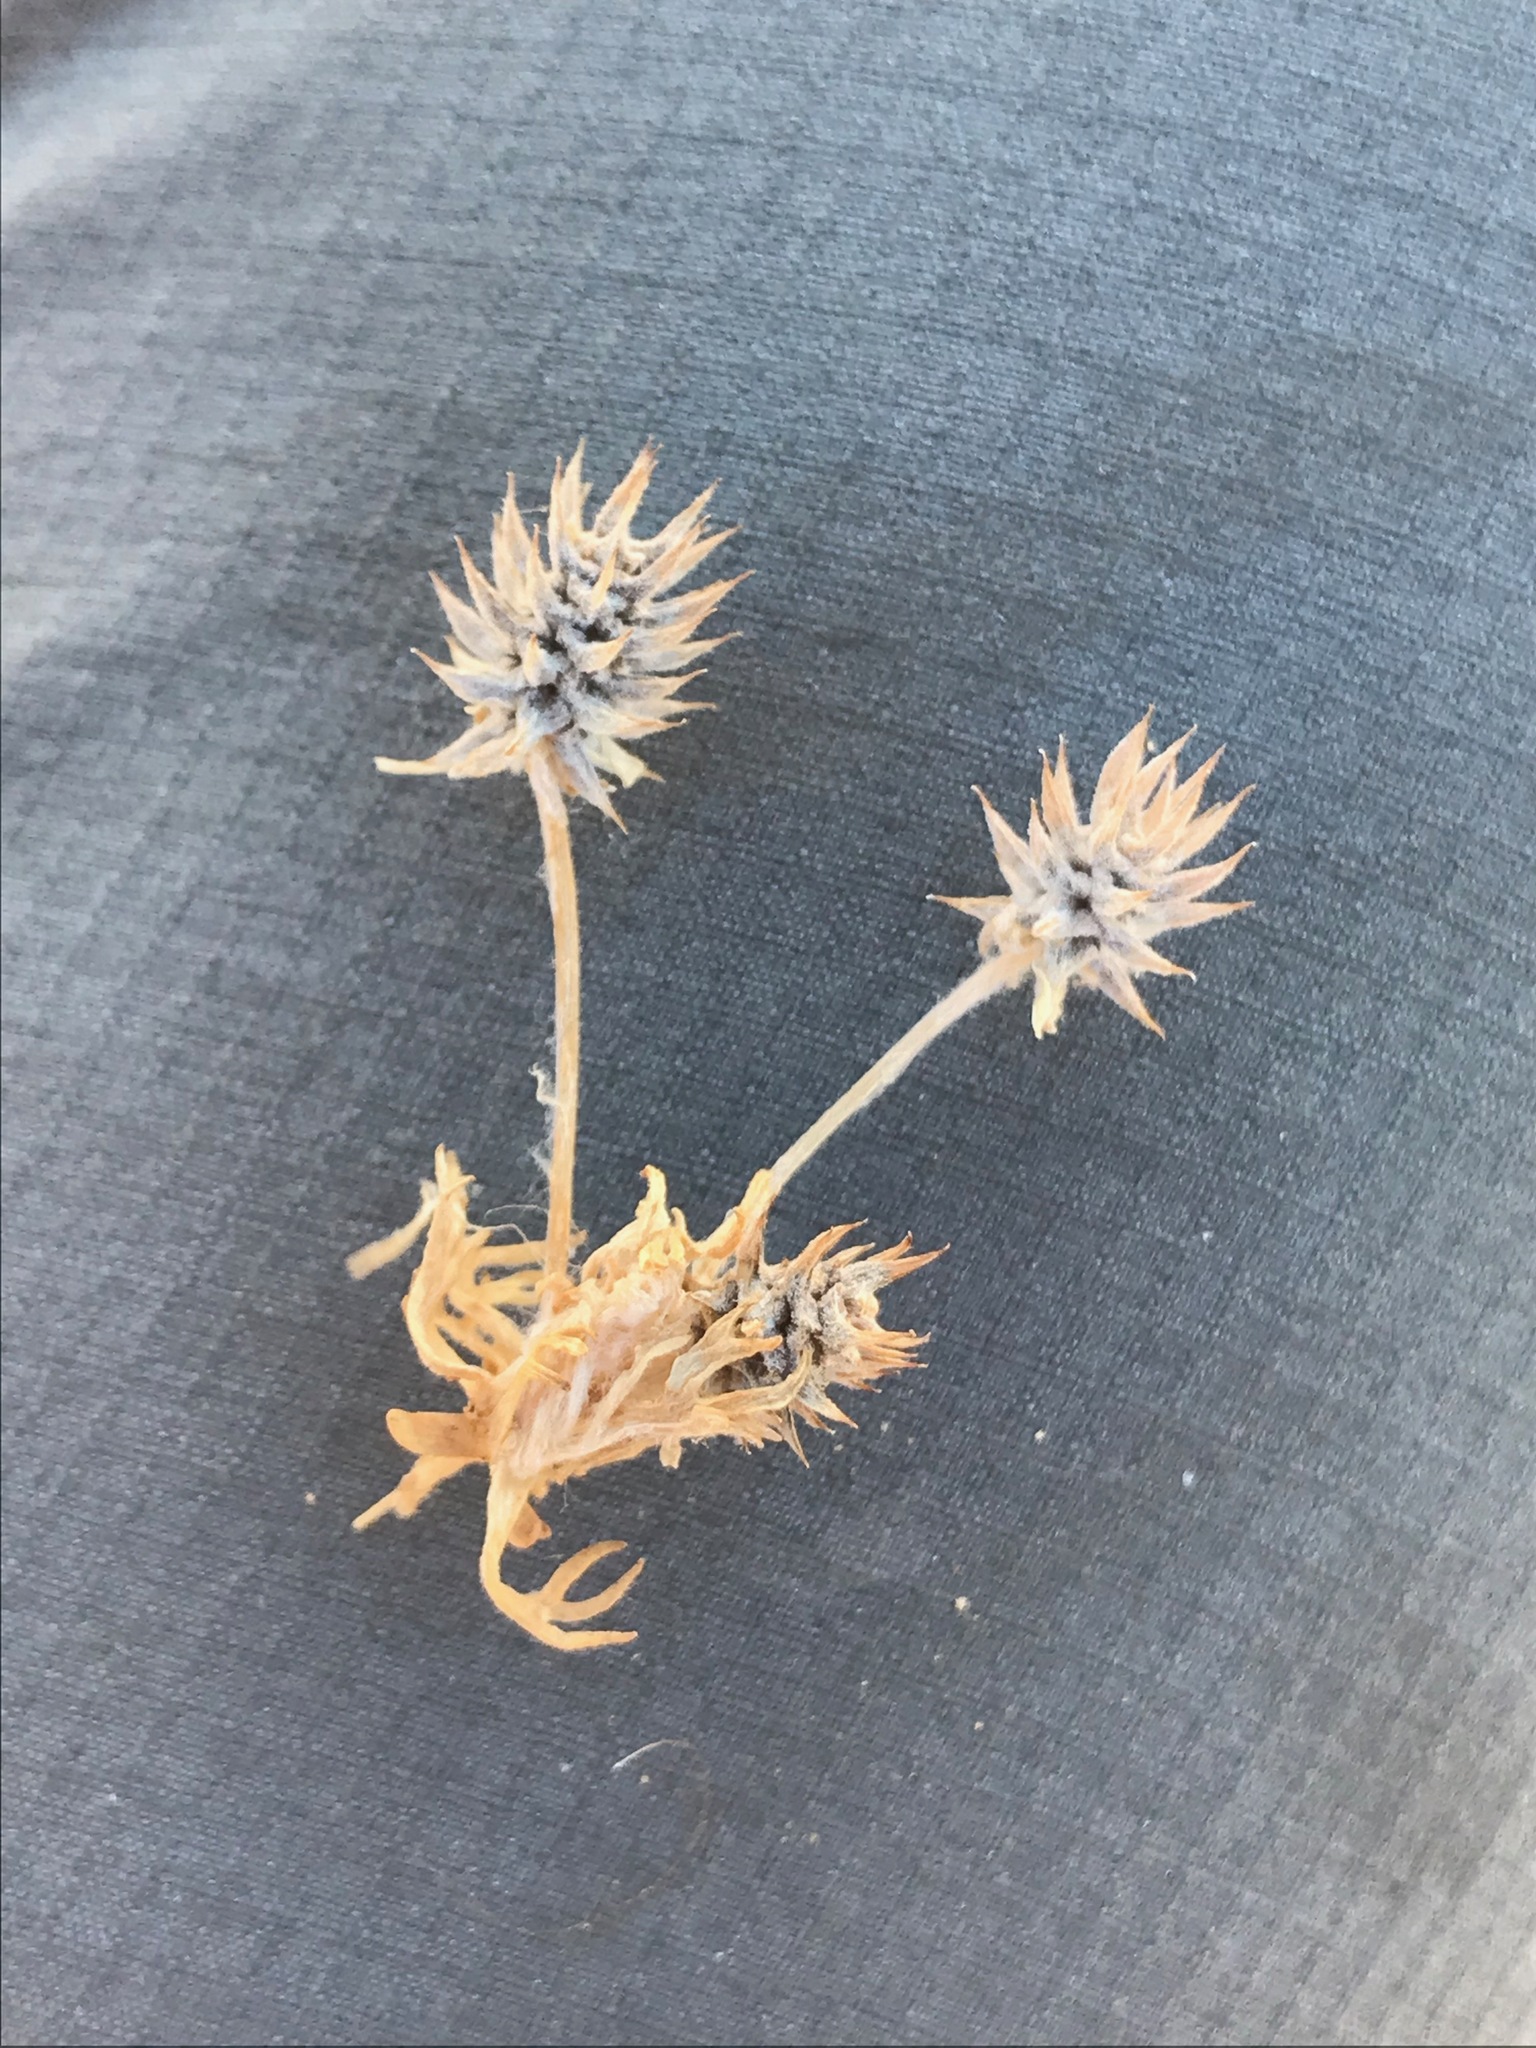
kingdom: Plantae
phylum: Tracheophyta
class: Magnoliopsida
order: Ranunculales
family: Ranunculaceae
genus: Ceratocephala
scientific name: Ceratocephala orthoceras
